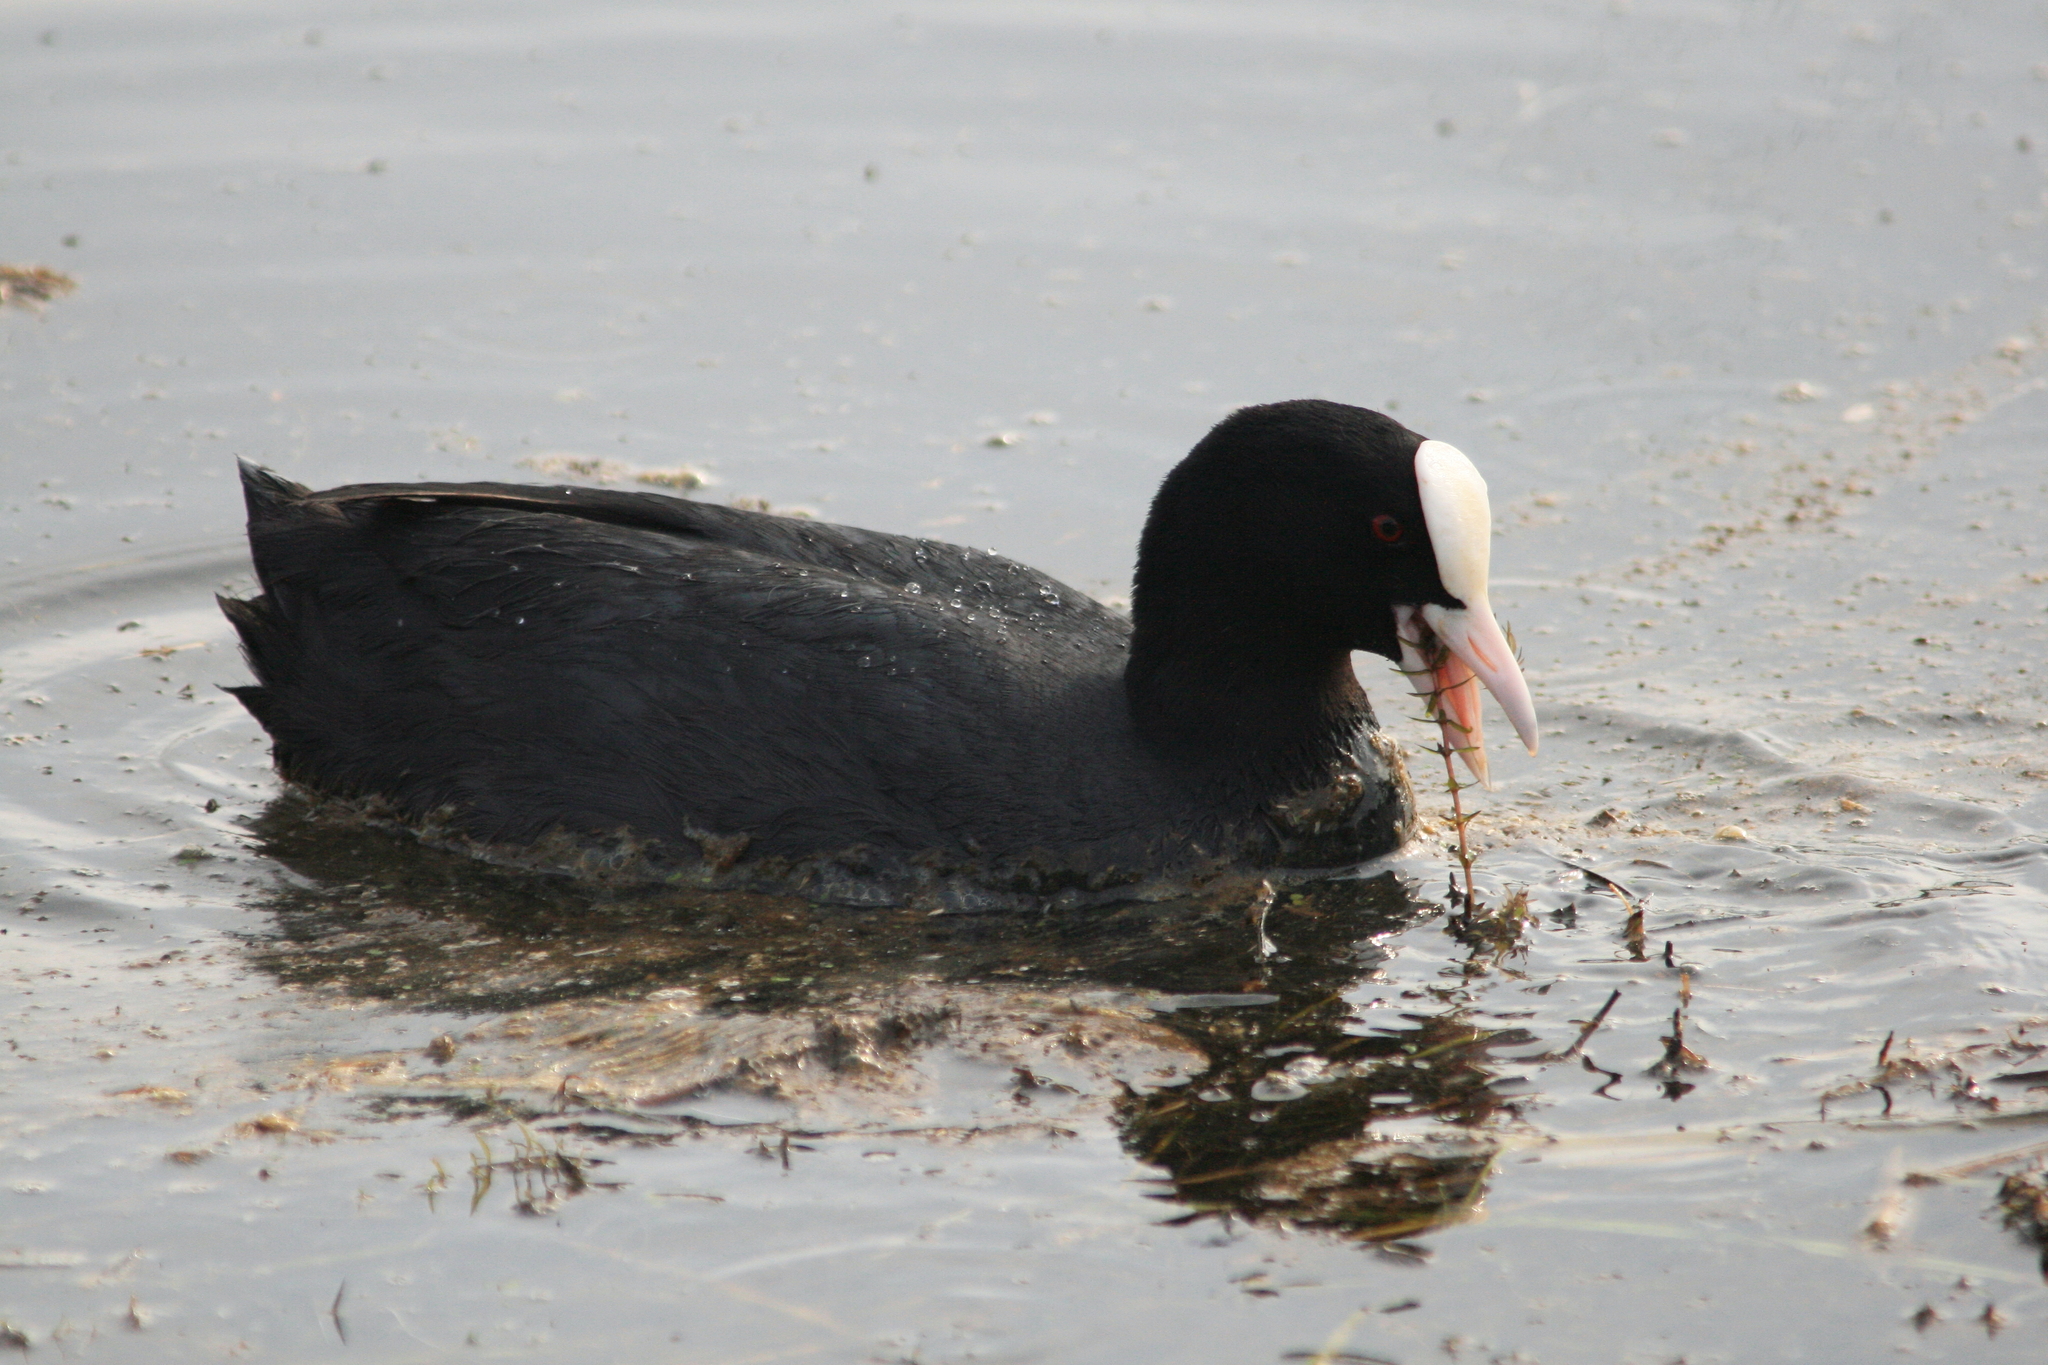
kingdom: Animalia
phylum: Chordata
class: Aves
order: Gruiformes
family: Rallidae
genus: Fulica
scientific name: Fulica atra
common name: Eurasian coot
